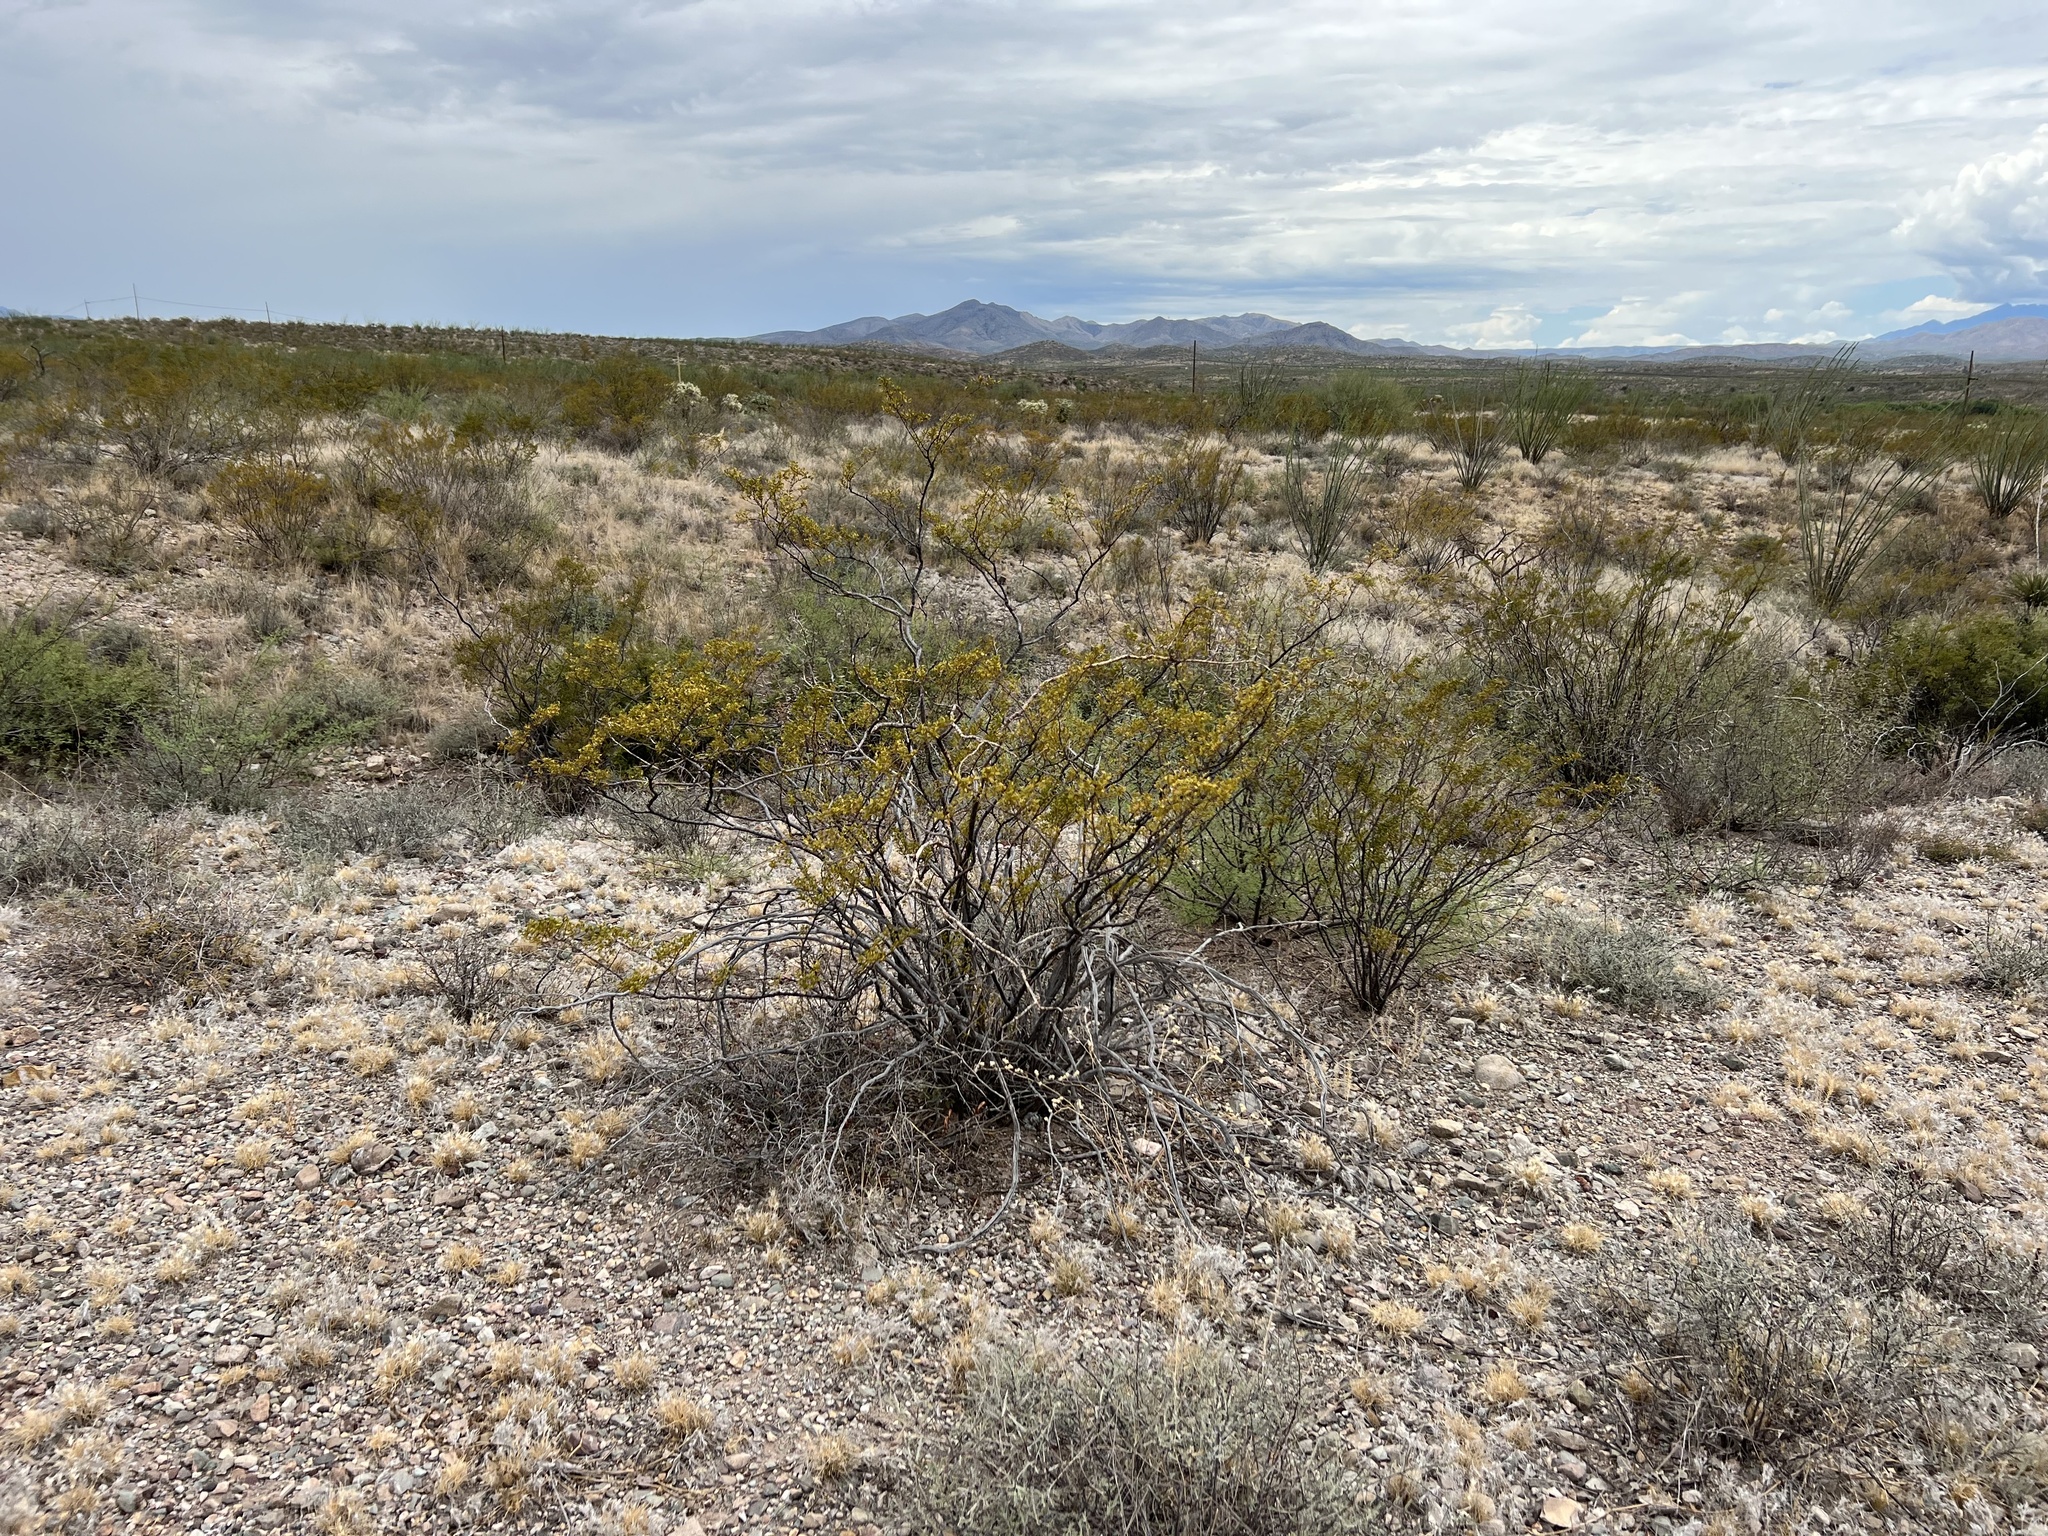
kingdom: Plantae
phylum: Tracheophyta
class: Magnoliopsida
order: Zygophyllales
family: Zygophyllaceae
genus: Larrea
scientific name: Larrea tridentata
